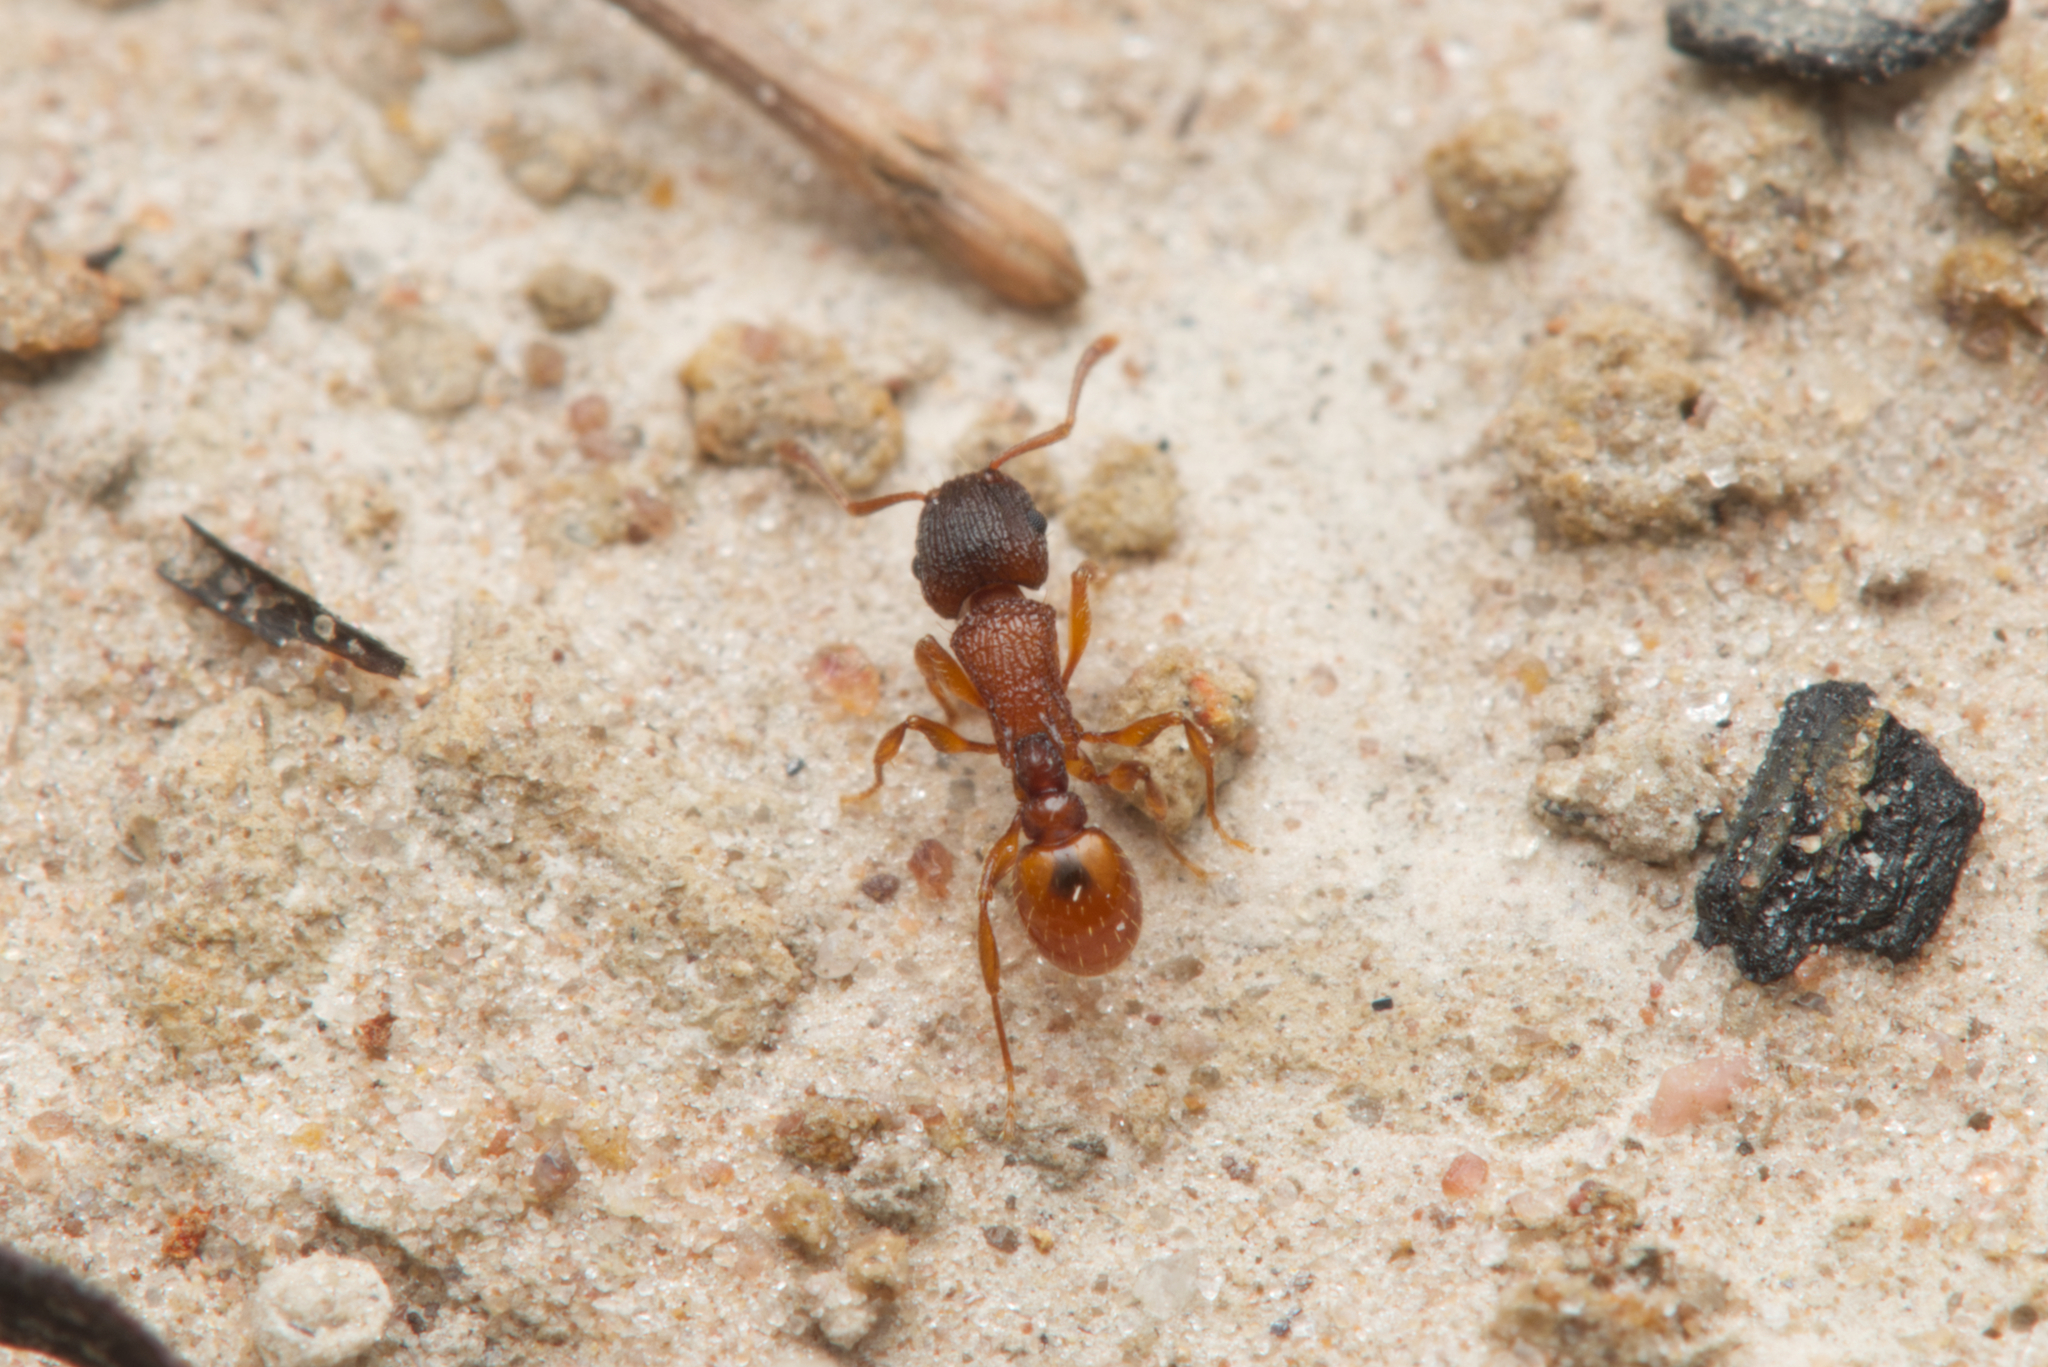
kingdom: Animalia
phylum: Arthropoda
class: Insecta
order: Hymenoptera
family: Formicidae
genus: Tetramorium
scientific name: Tetramorium fuscipes
